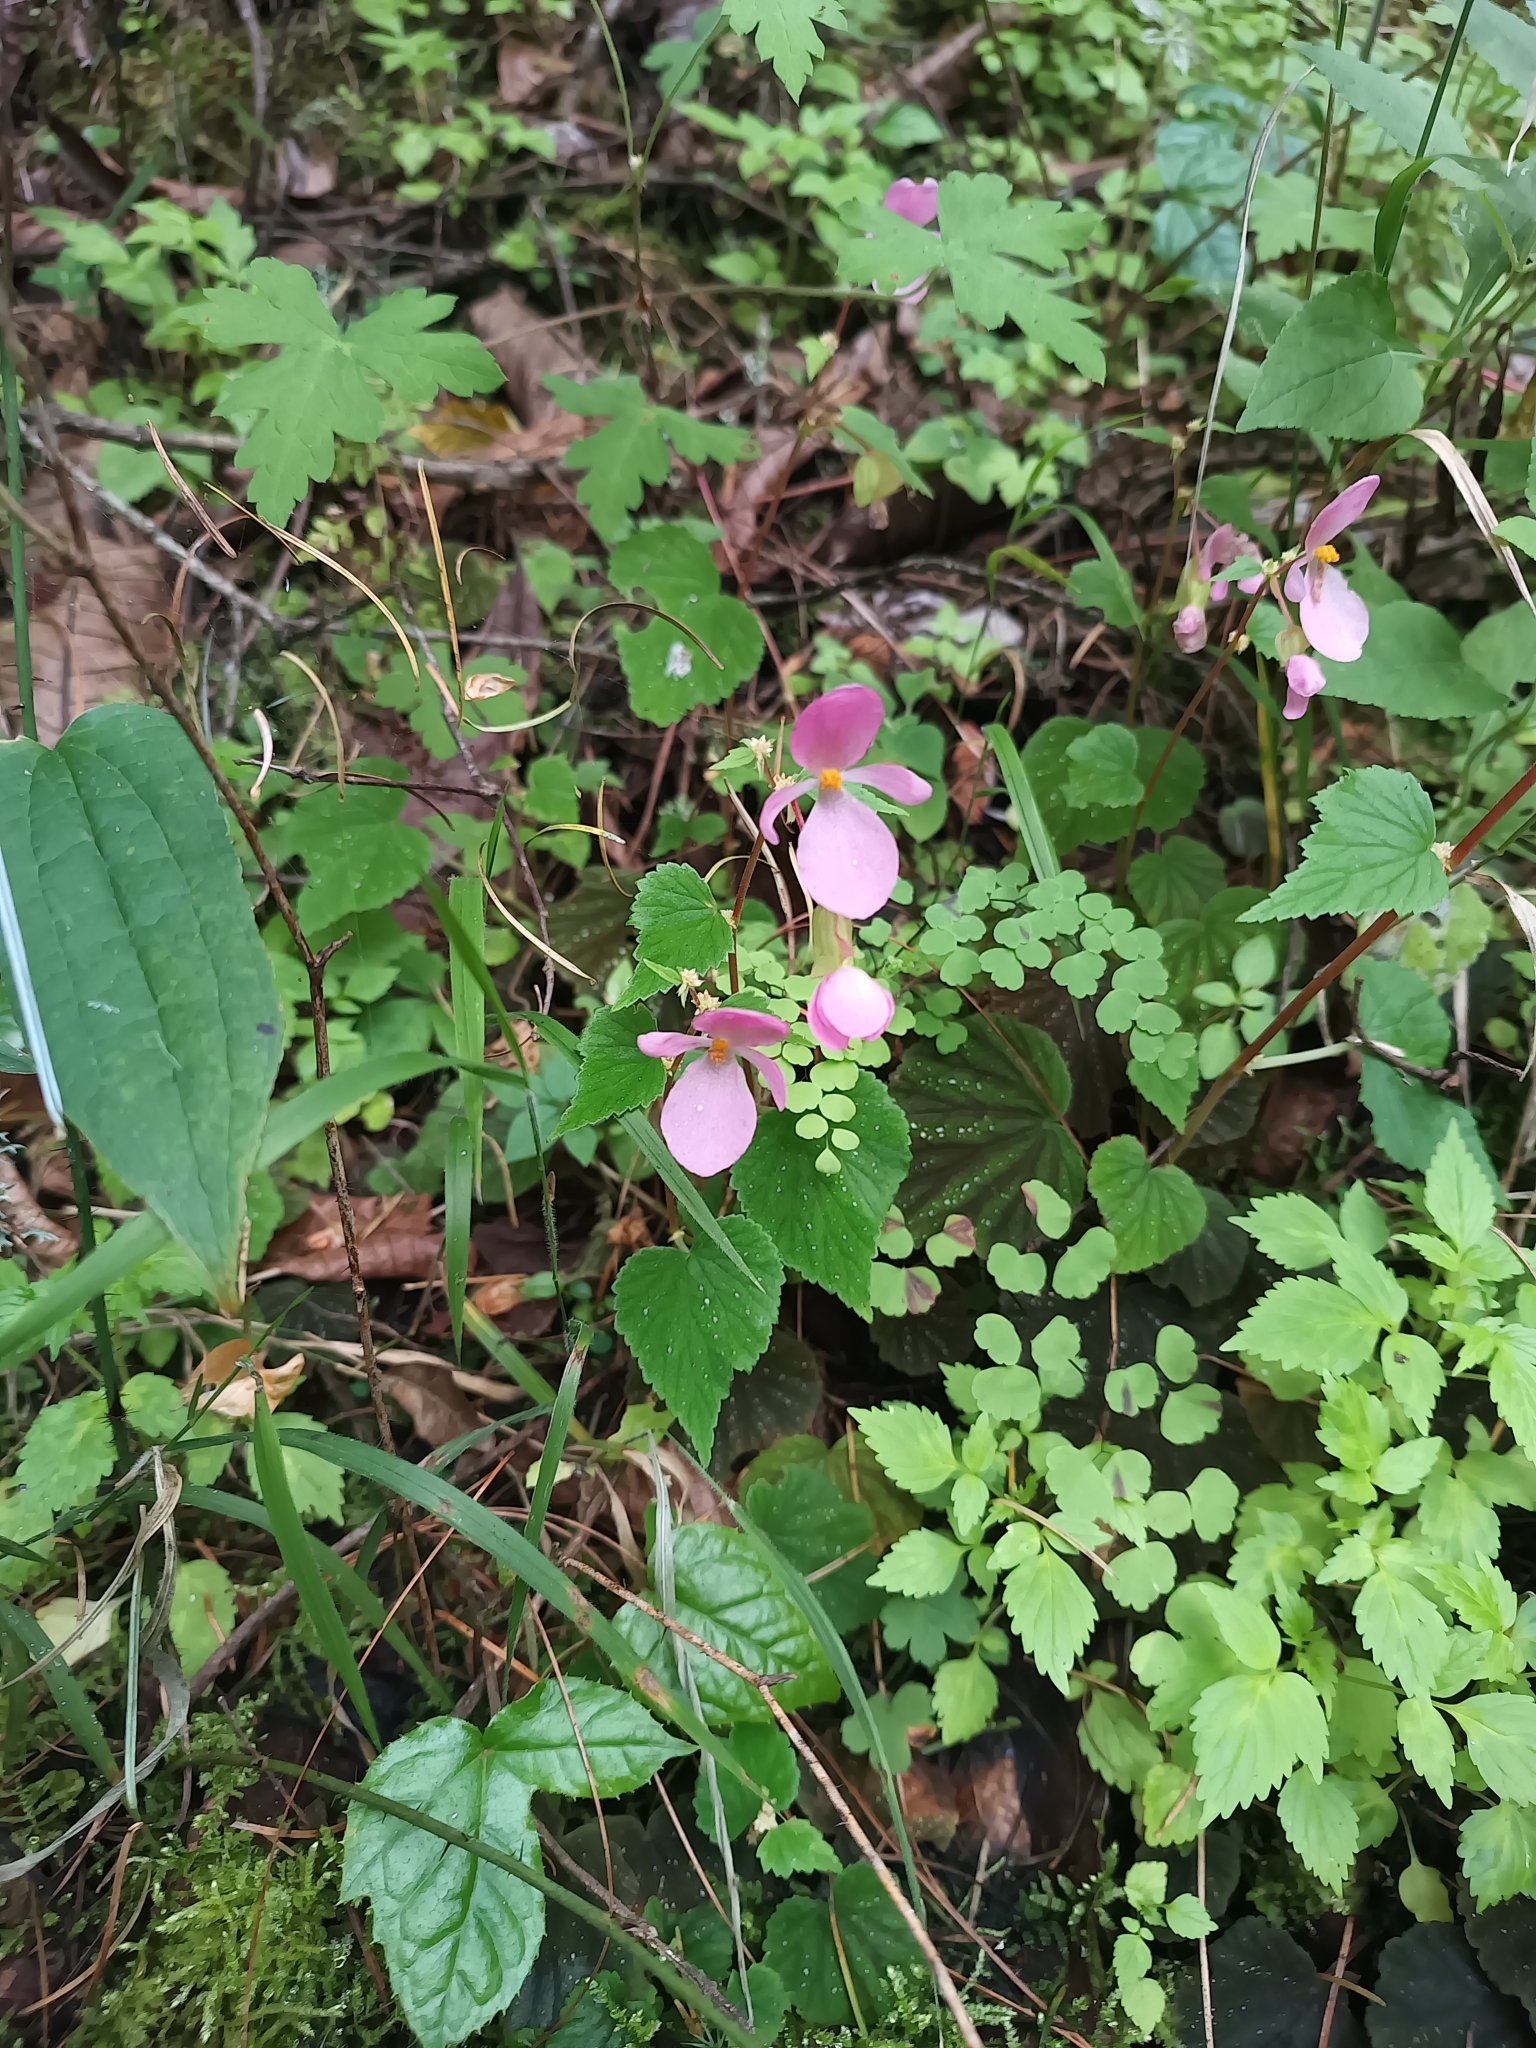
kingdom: Plantae
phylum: Tracheophyta
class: Magnoliopsida
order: Cucurbitales
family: Begoniaceae
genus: Begonia
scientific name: Begonia fusibulba
